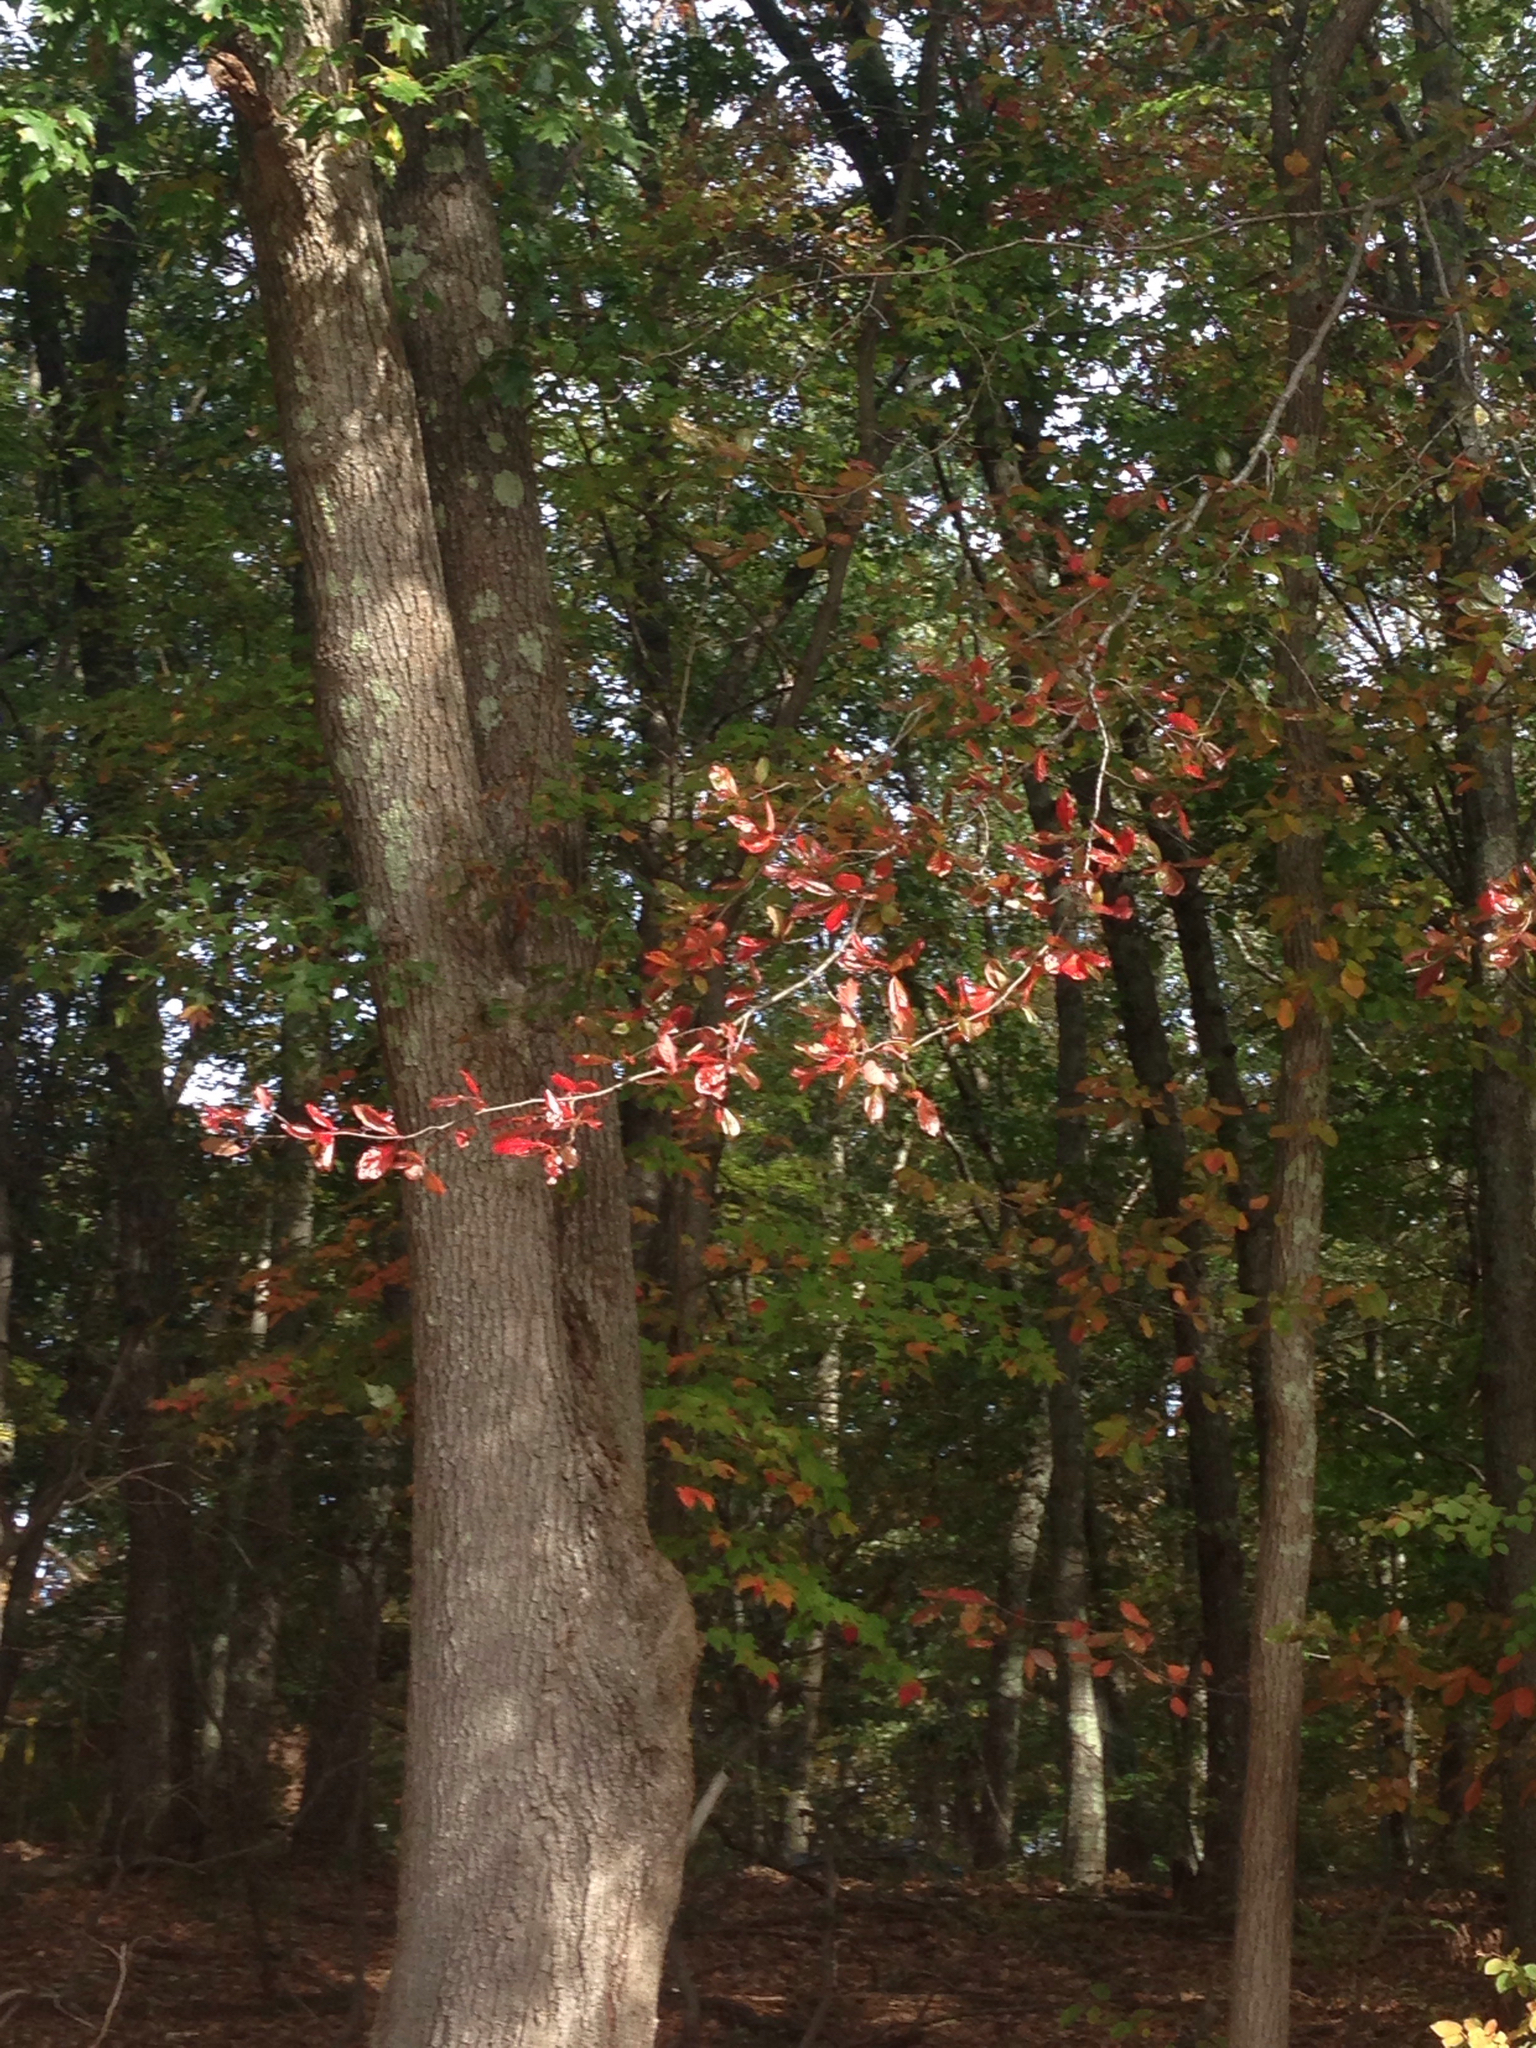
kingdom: Plantae
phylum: Tracheophyta
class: Magnoliopsida
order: Cornales
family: Nyssaceae
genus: Nyssa
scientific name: Nyssa sylvatica
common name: Black tupelo
